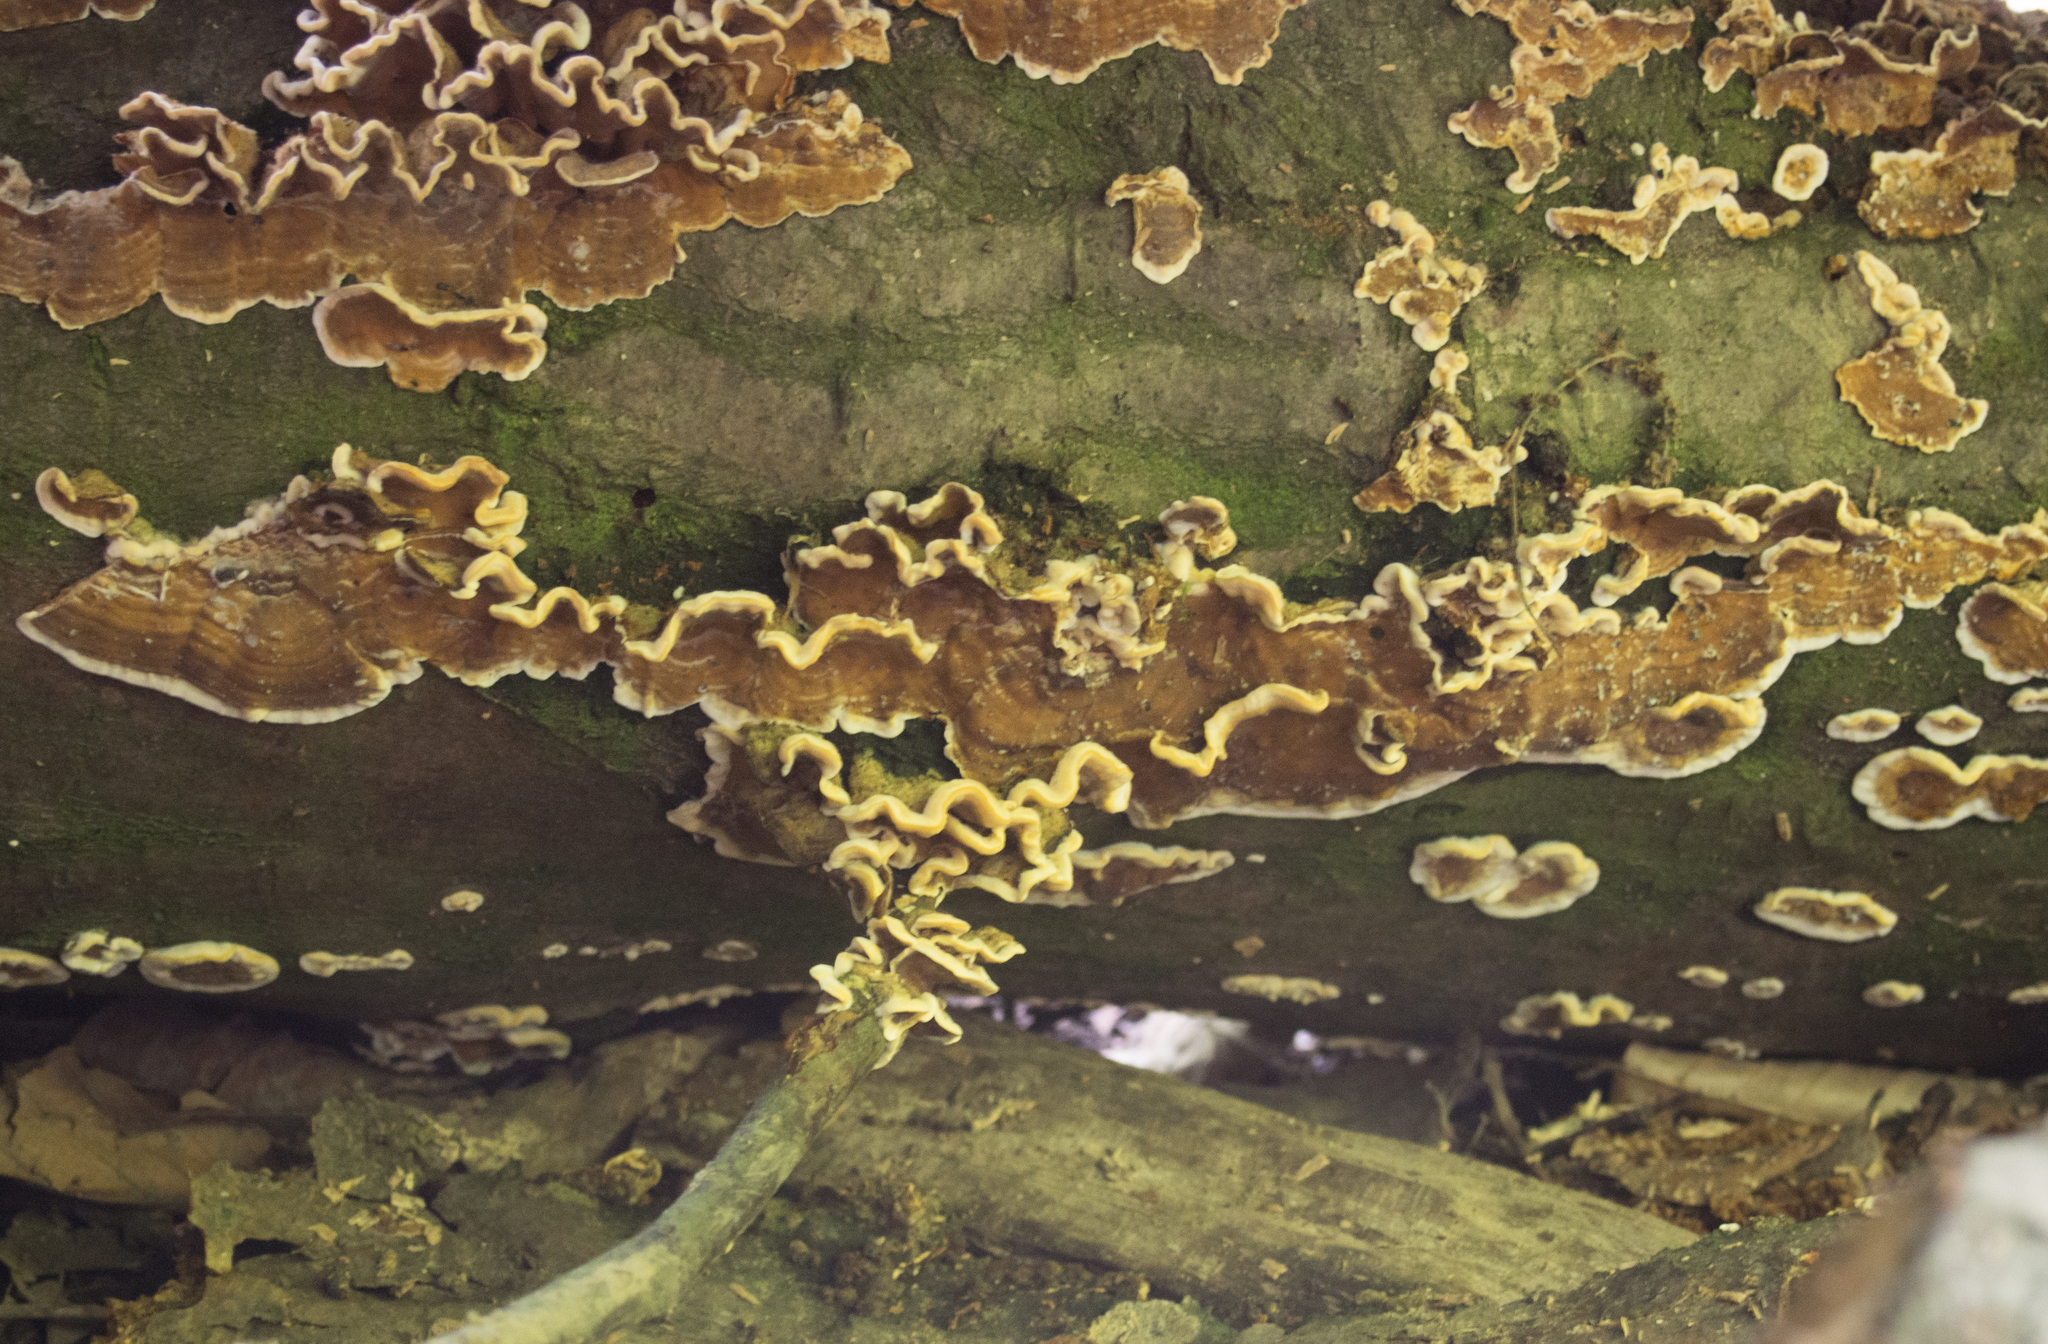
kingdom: Fungi
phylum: Basidiomycota
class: Agaricomycetes
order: Russulales
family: Stereaceae
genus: Xylobolus
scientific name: Xylobolus subpileatus
